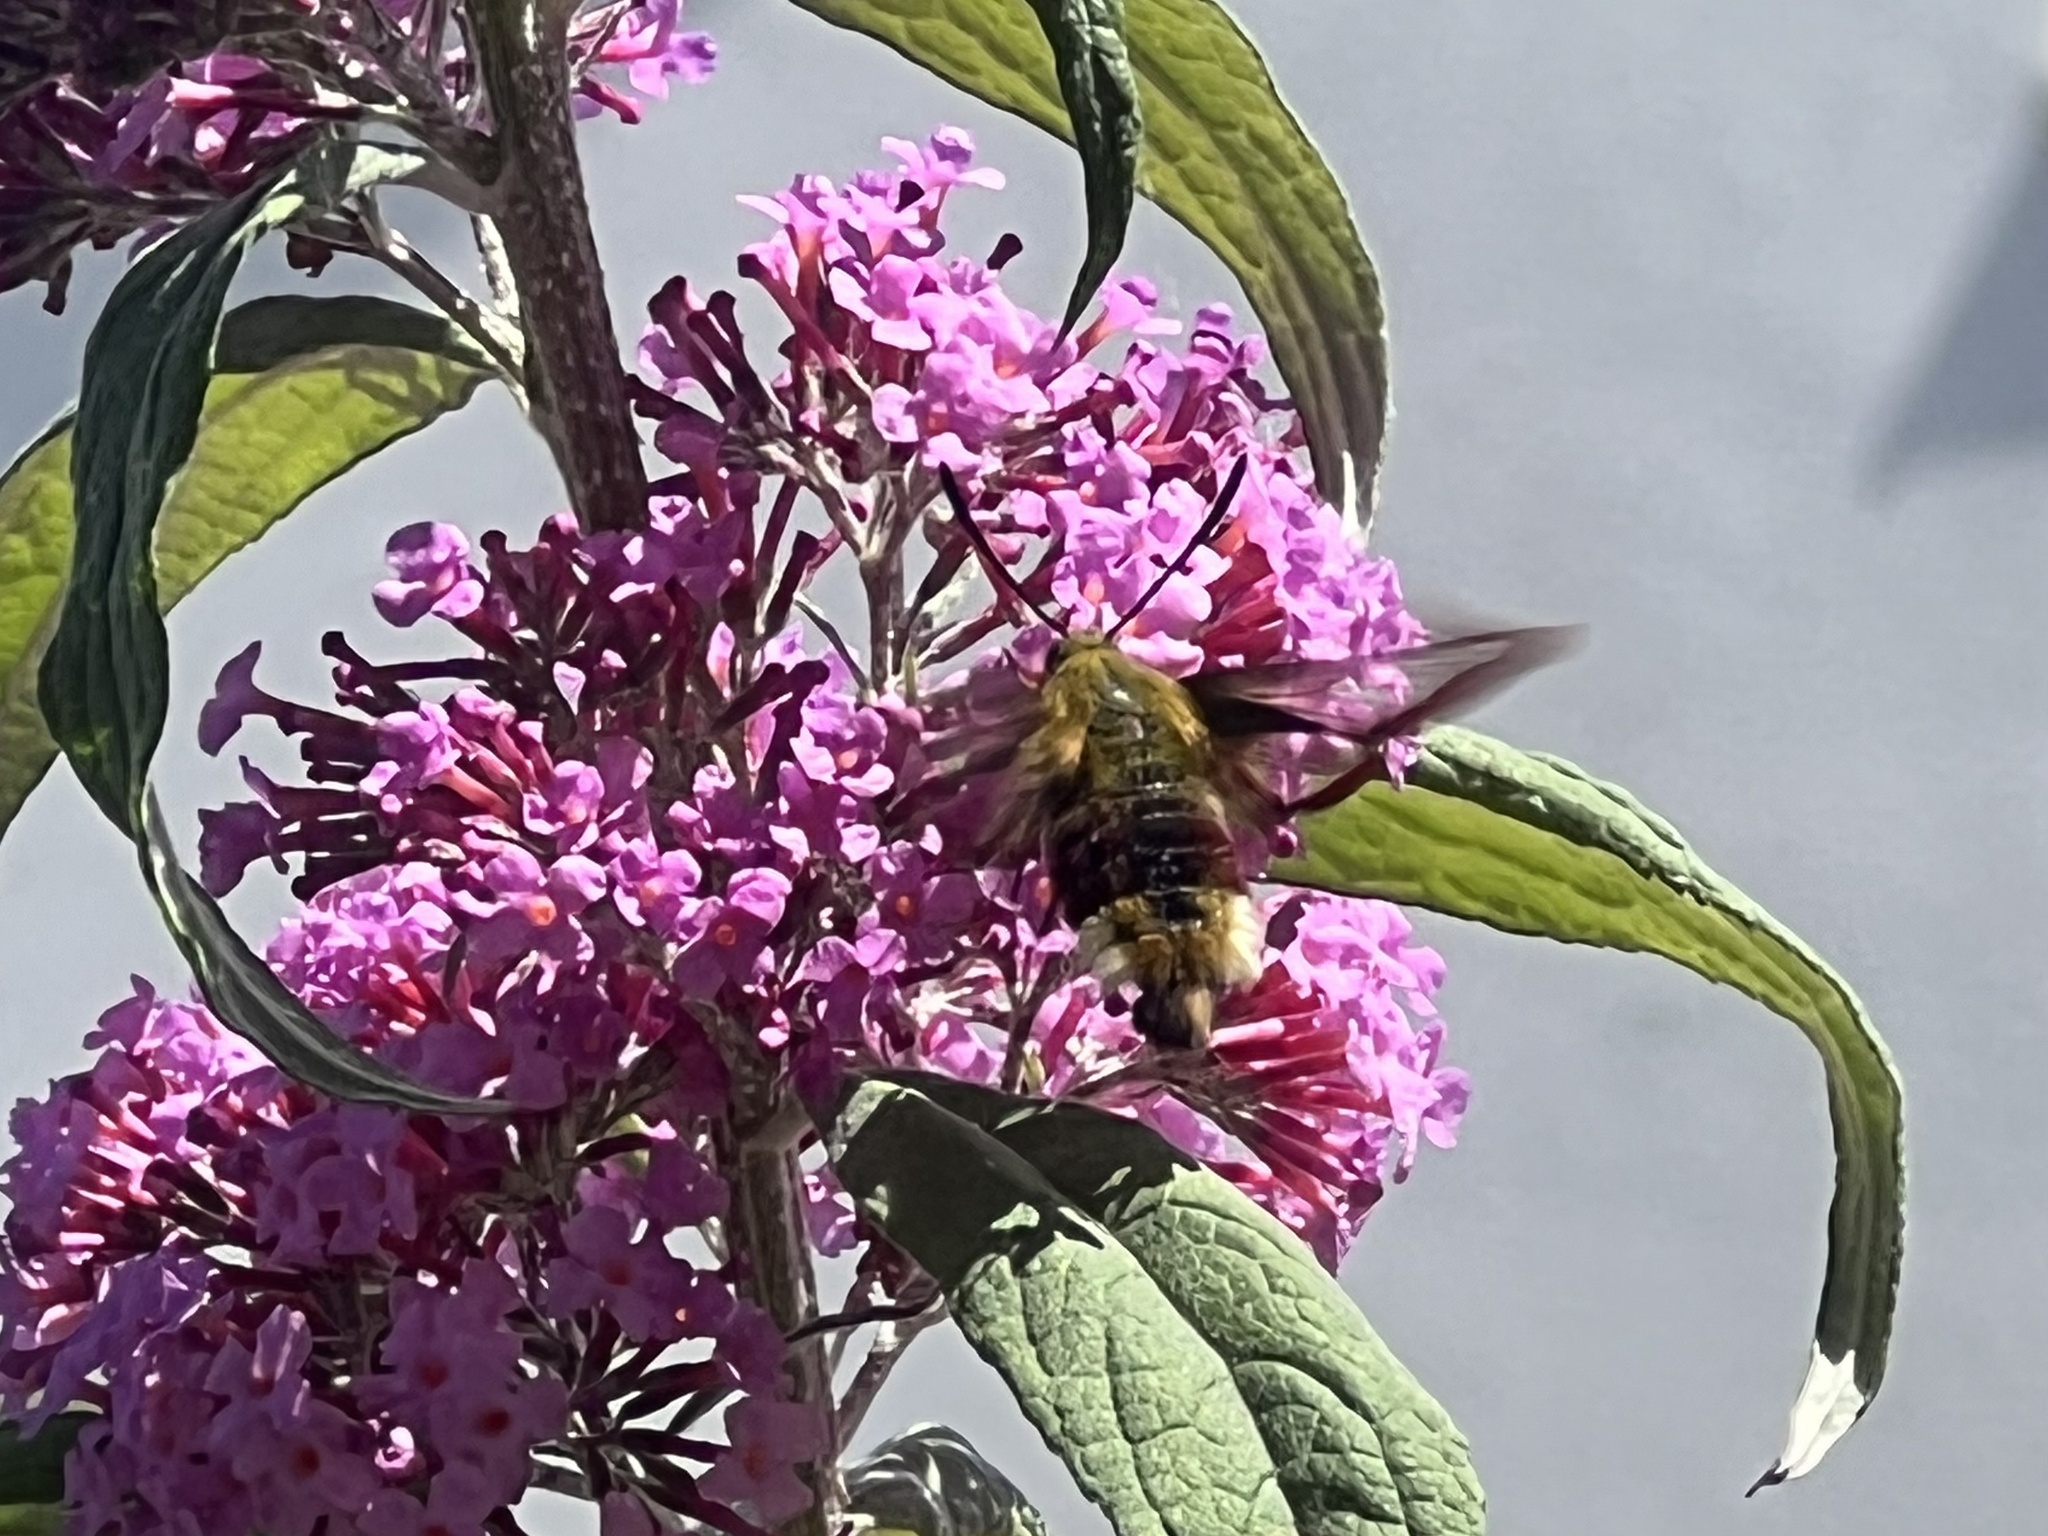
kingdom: Animalia
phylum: Arthropoda
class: Insecta
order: Lepidoptera
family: Sphingidae
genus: Hemaris
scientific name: Hemaris fuciformis
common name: Broad-bordered bee hawk-moth
